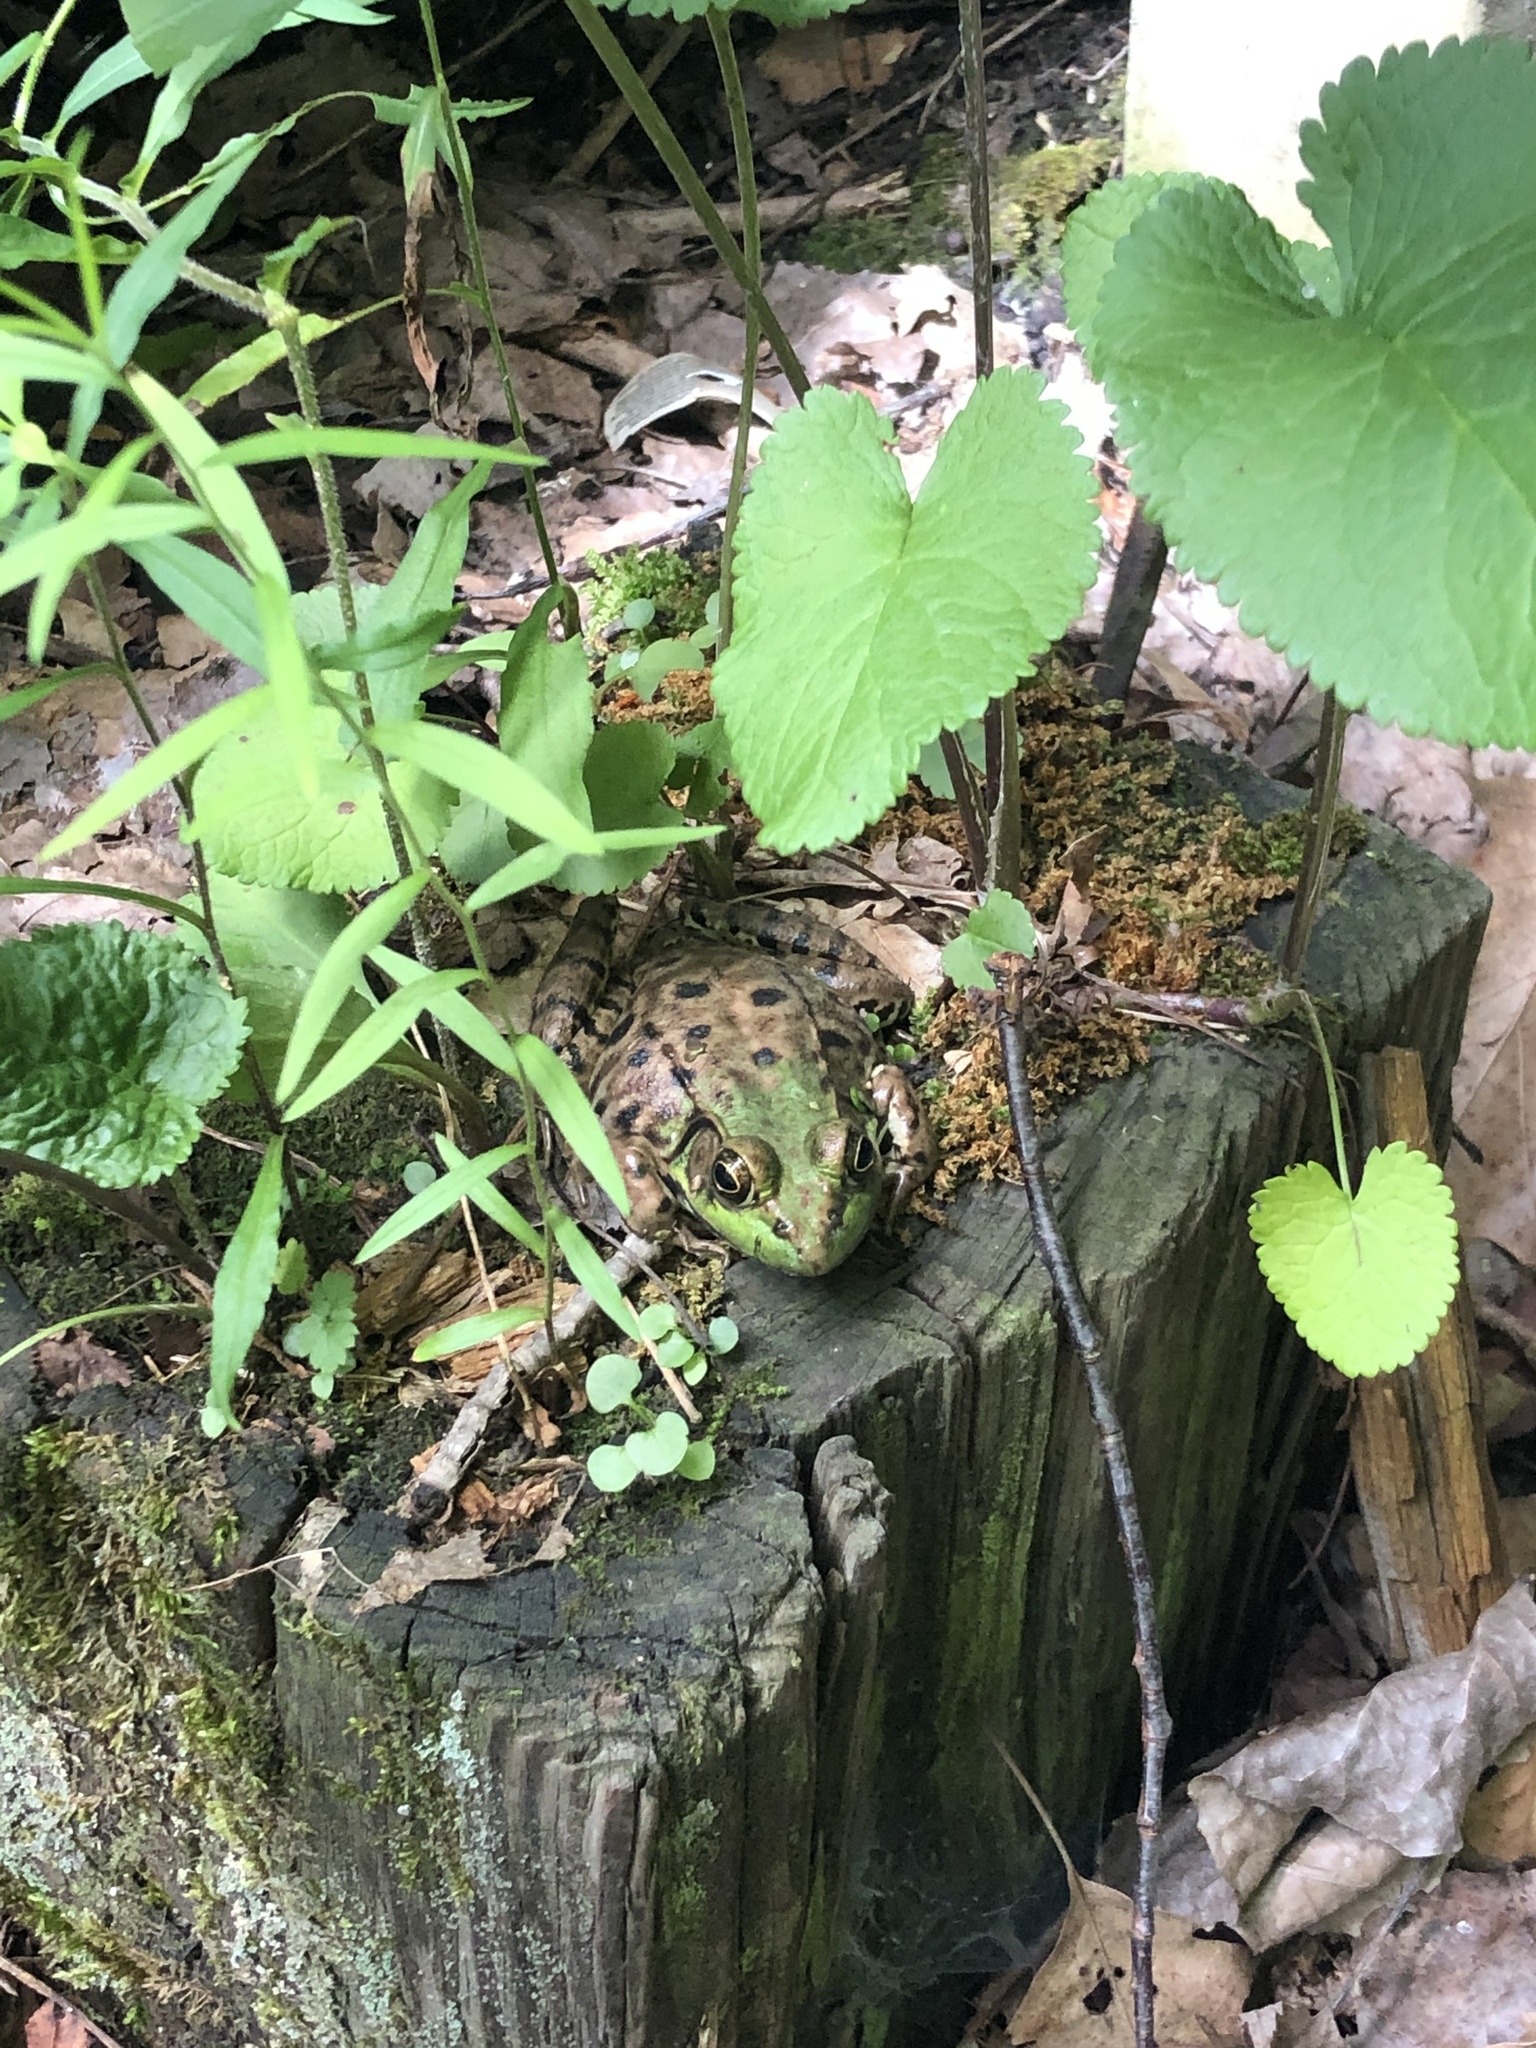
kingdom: Animalia
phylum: Chordata
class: Amphibia
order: Anura
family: Ranidae
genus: Lithobates
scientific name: Lithobates clamitans
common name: Green frog
